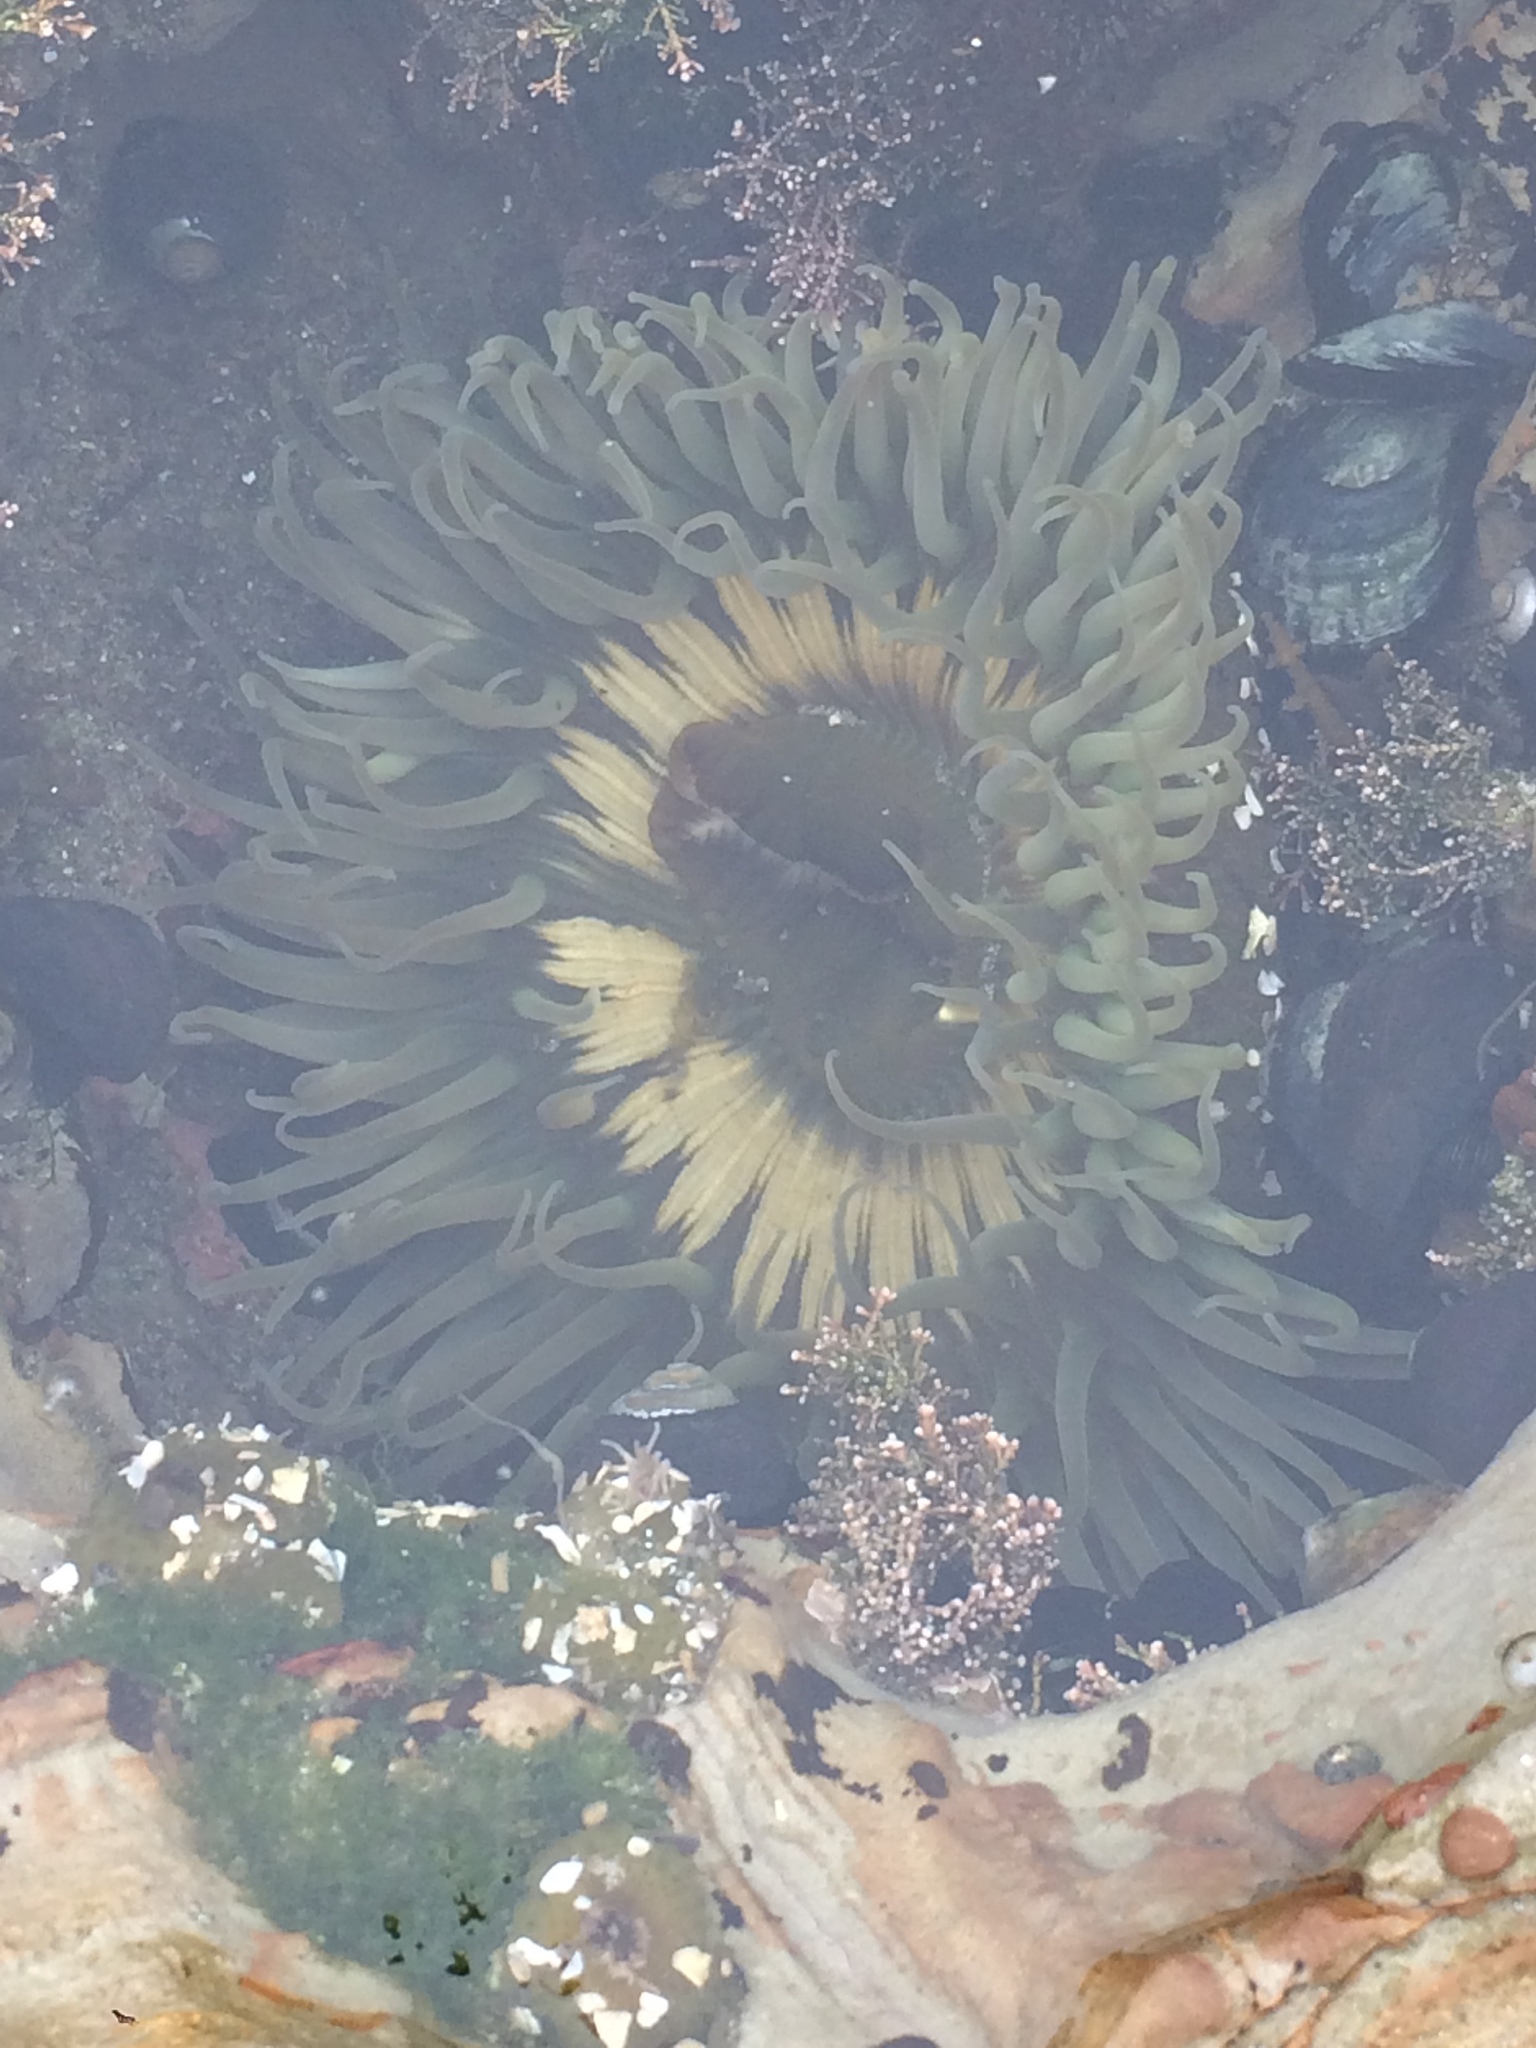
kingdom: Animalia
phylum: Cnidaria
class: Anthozoa
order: Actiniaria
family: Actiniidae
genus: Anthopleura
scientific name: Anthopleura sola
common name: Sun anemone
